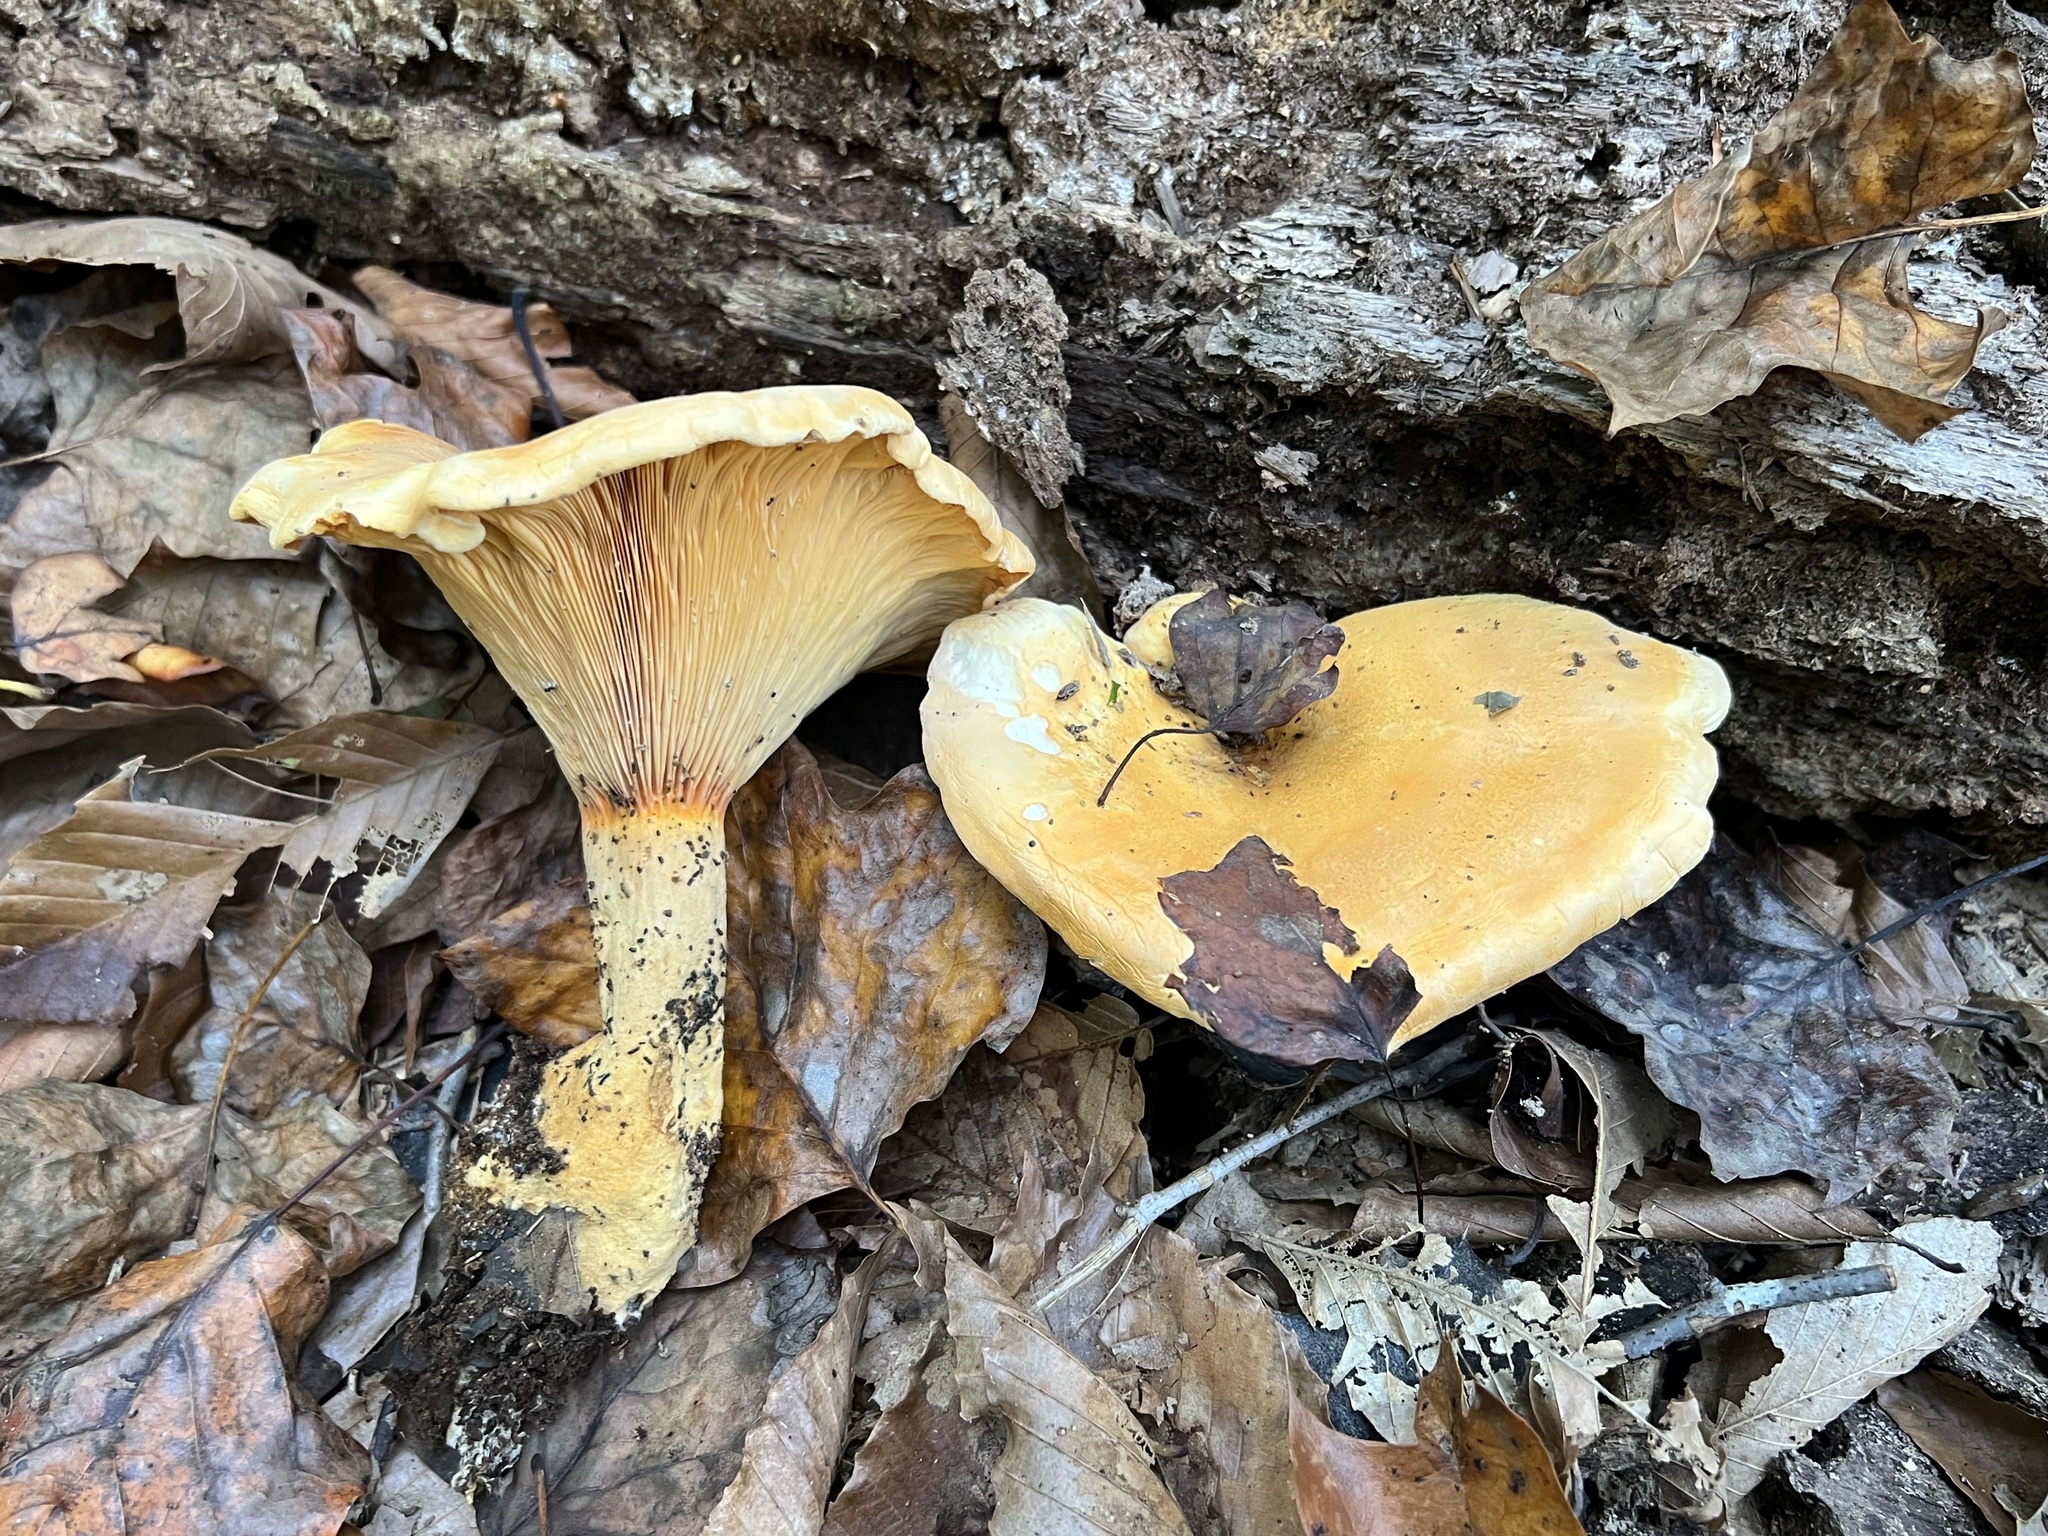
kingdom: Fungi
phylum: Basidiomycota
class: Agaricomycetes
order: Boletales
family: Hygrophoropsidaceae
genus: Hygrophoropsis
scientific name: Hygrophoropsis aurantiaca
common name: False chanterelle
